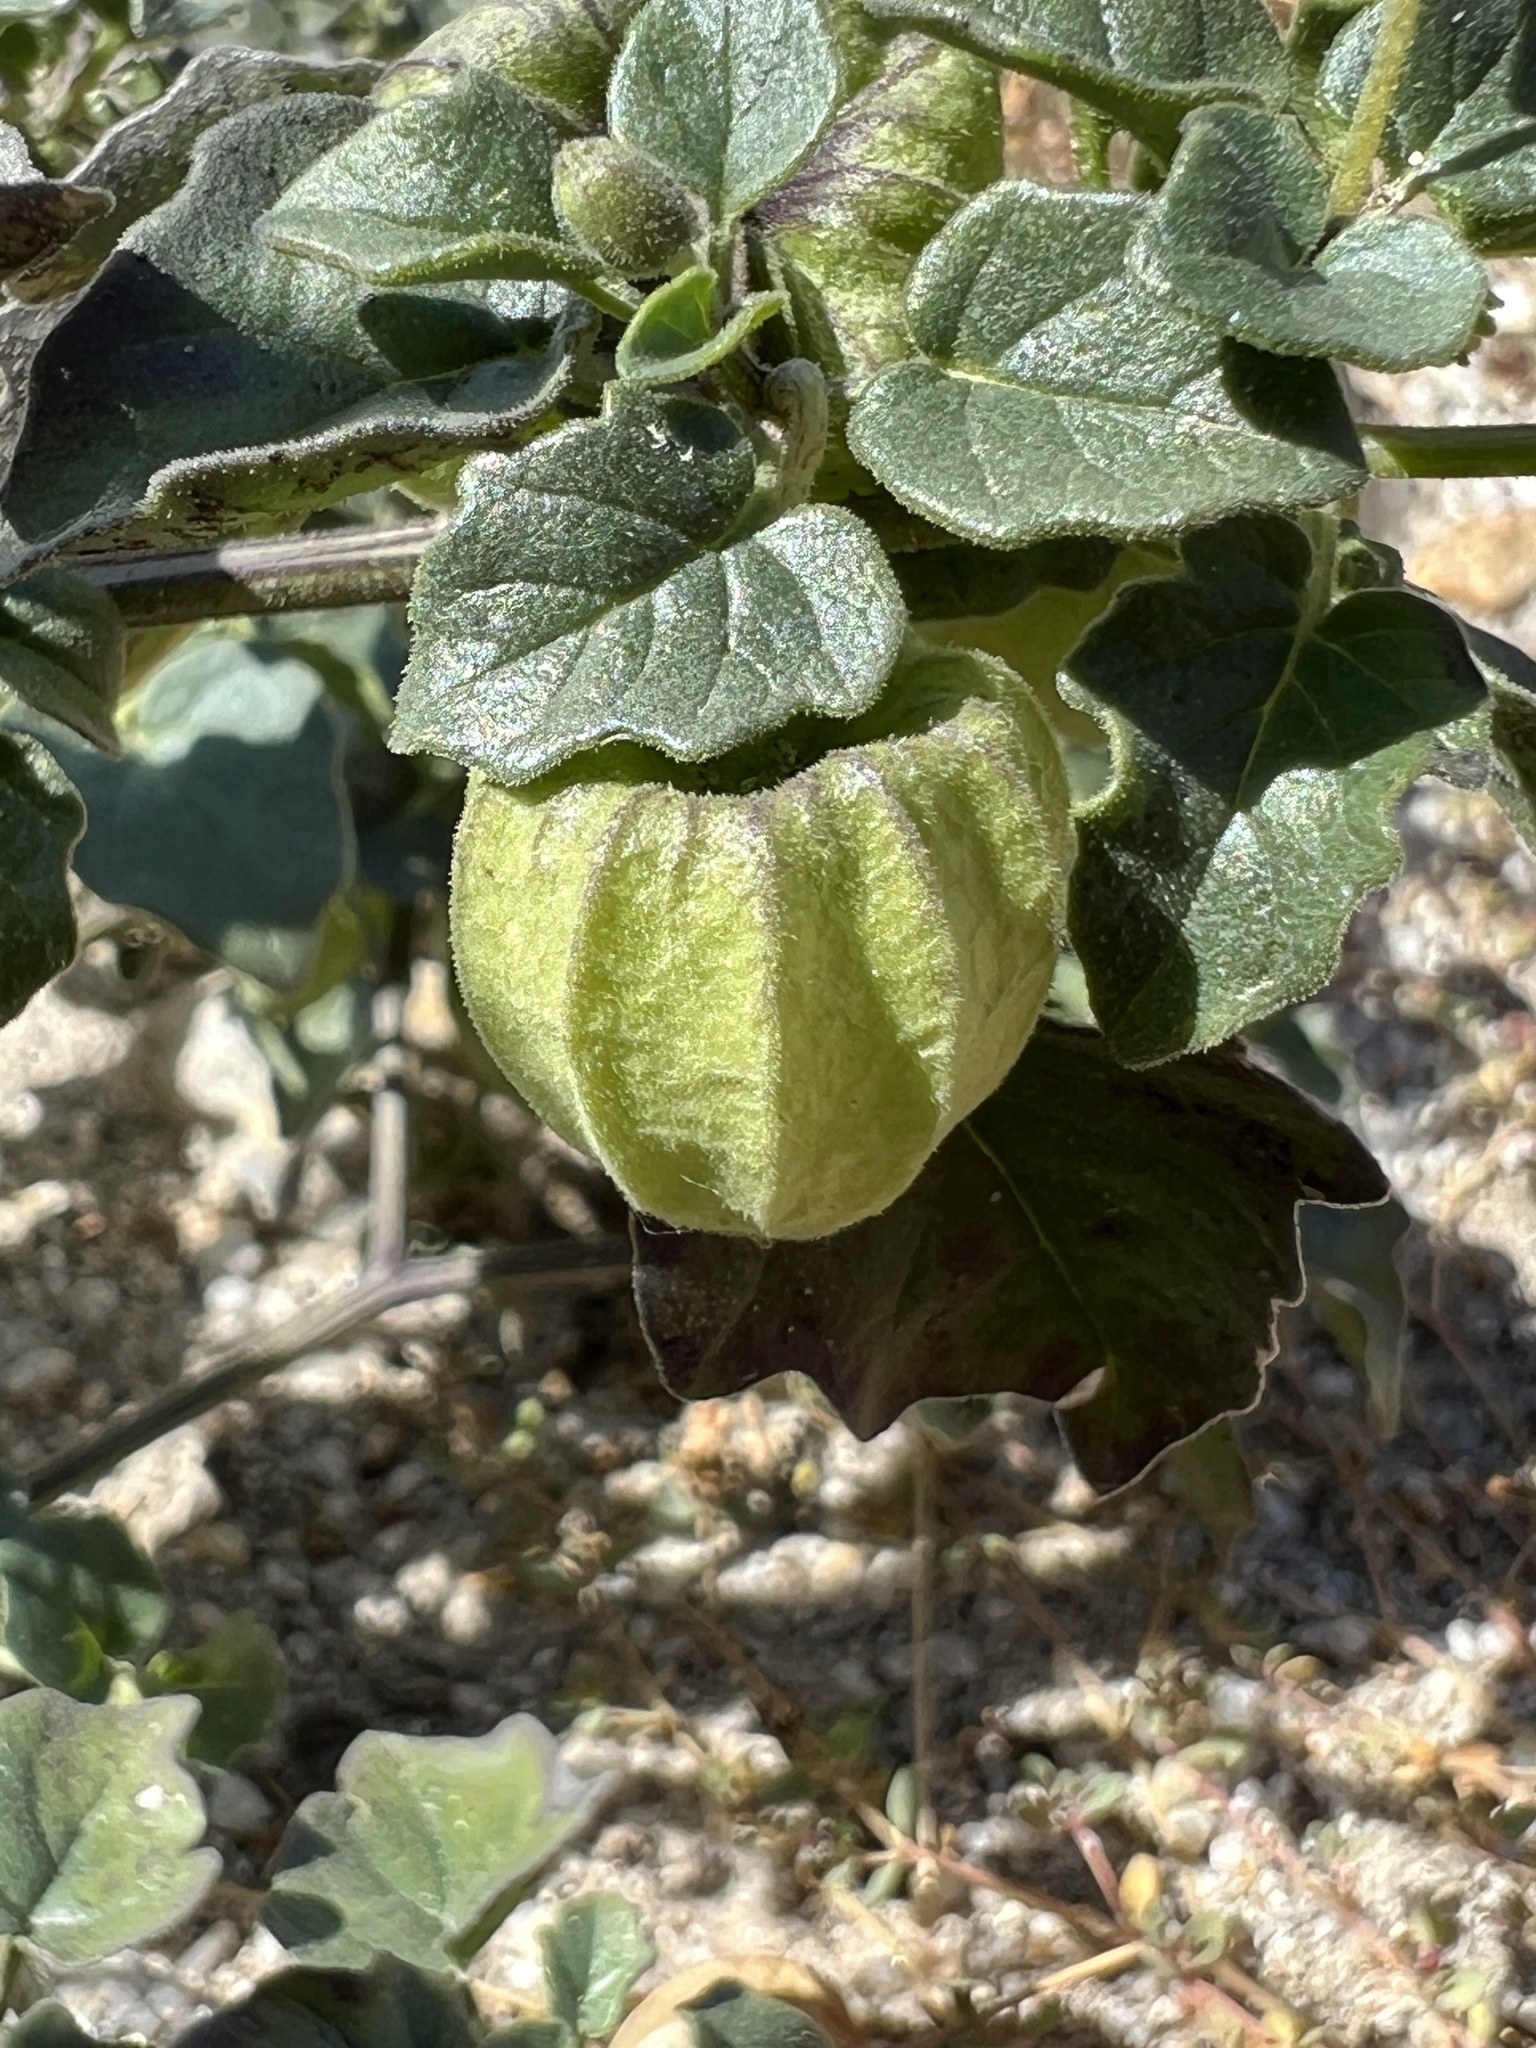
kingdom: Plantae
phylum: Tracheophyta
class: Magnoliopsida
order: Solanales
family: Solanaceae
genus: Physalis
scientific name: Physalis crassifolia
